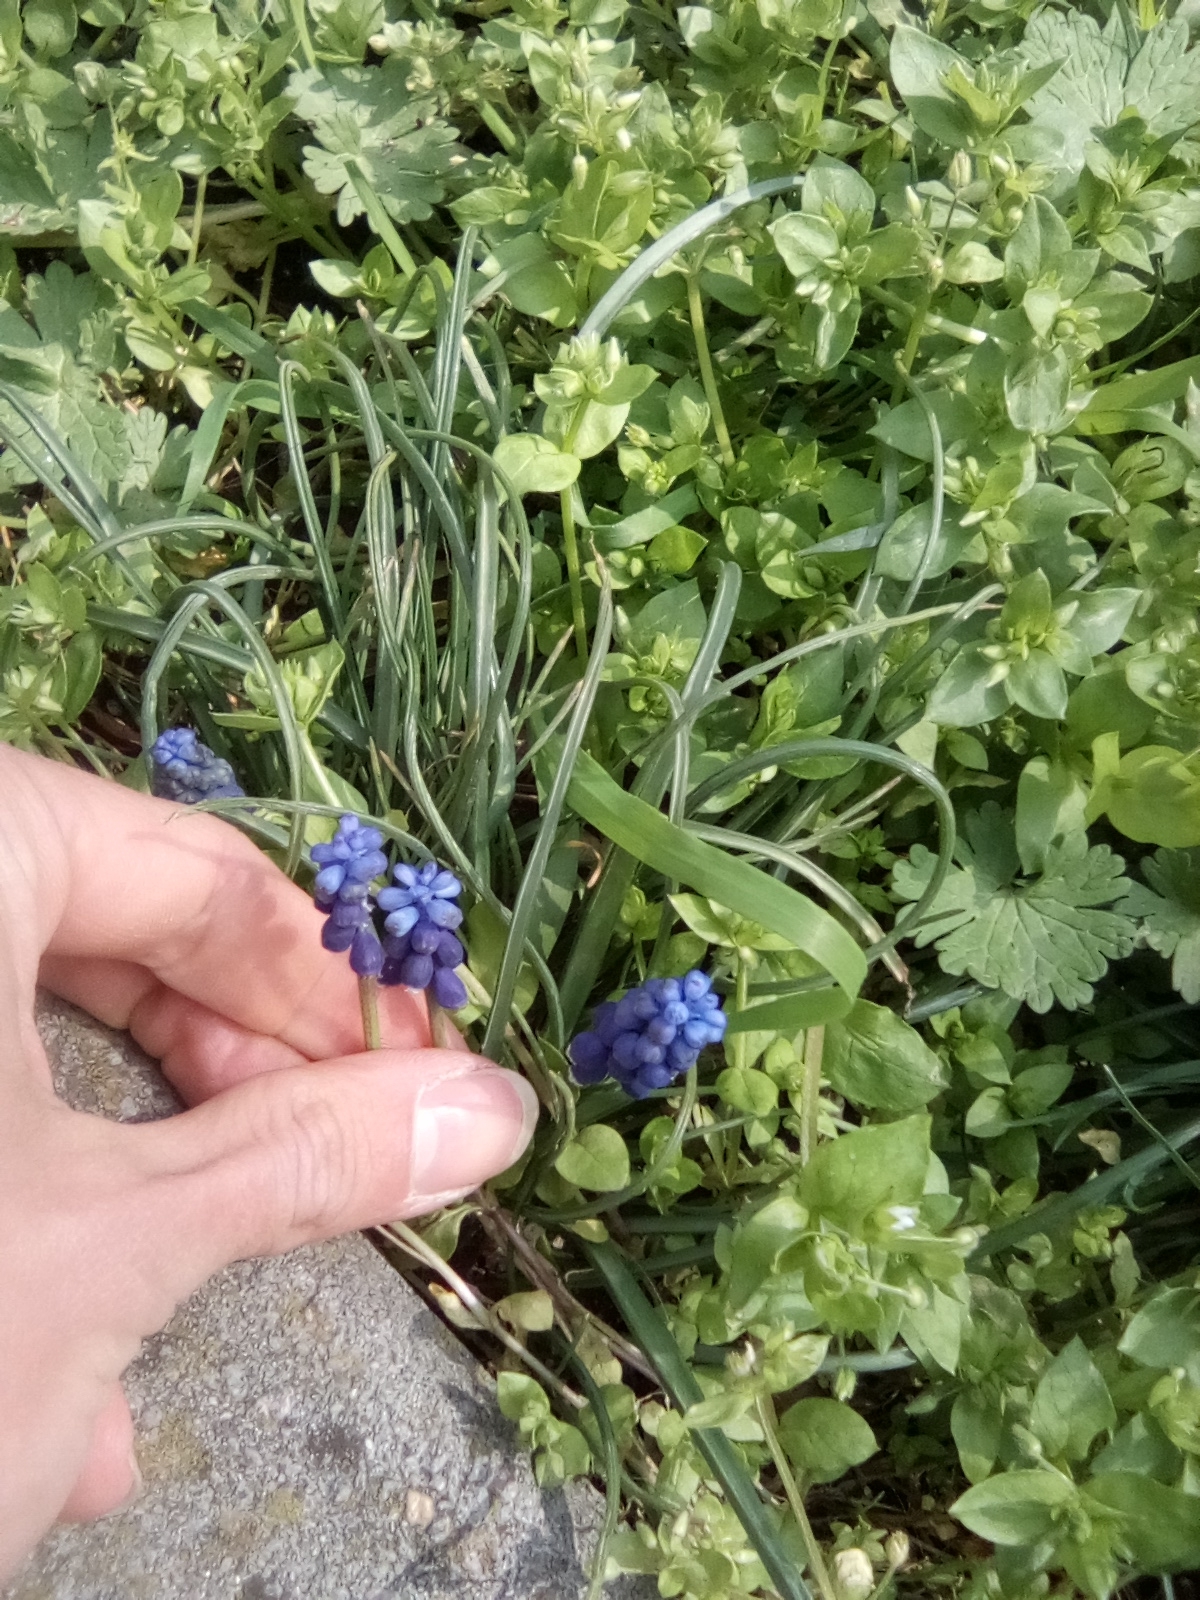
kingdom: Plantae
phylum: Tracheophyta
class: Liliopsida
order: Asparagales
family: Asparagaceae
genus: Muscari
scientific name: Muscari neglectum
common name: Grape-hyacinth
